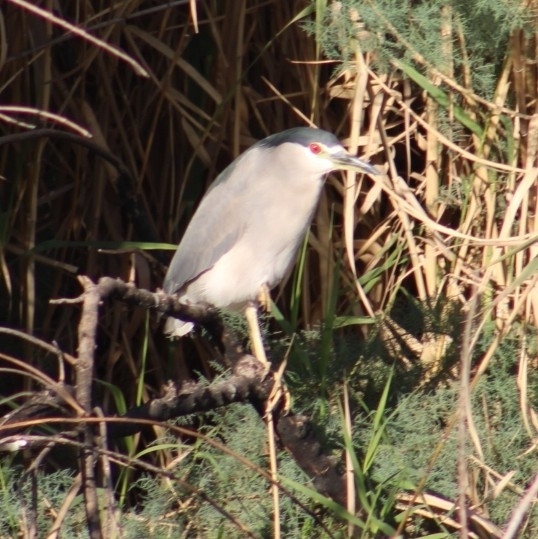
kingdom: Animalia
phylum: Chordata
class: Aves
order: Pelecaniformes
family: Ardeidae
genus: Nycticorax
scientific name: Nycticorax nycticorax
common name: Black-crowned night heron
